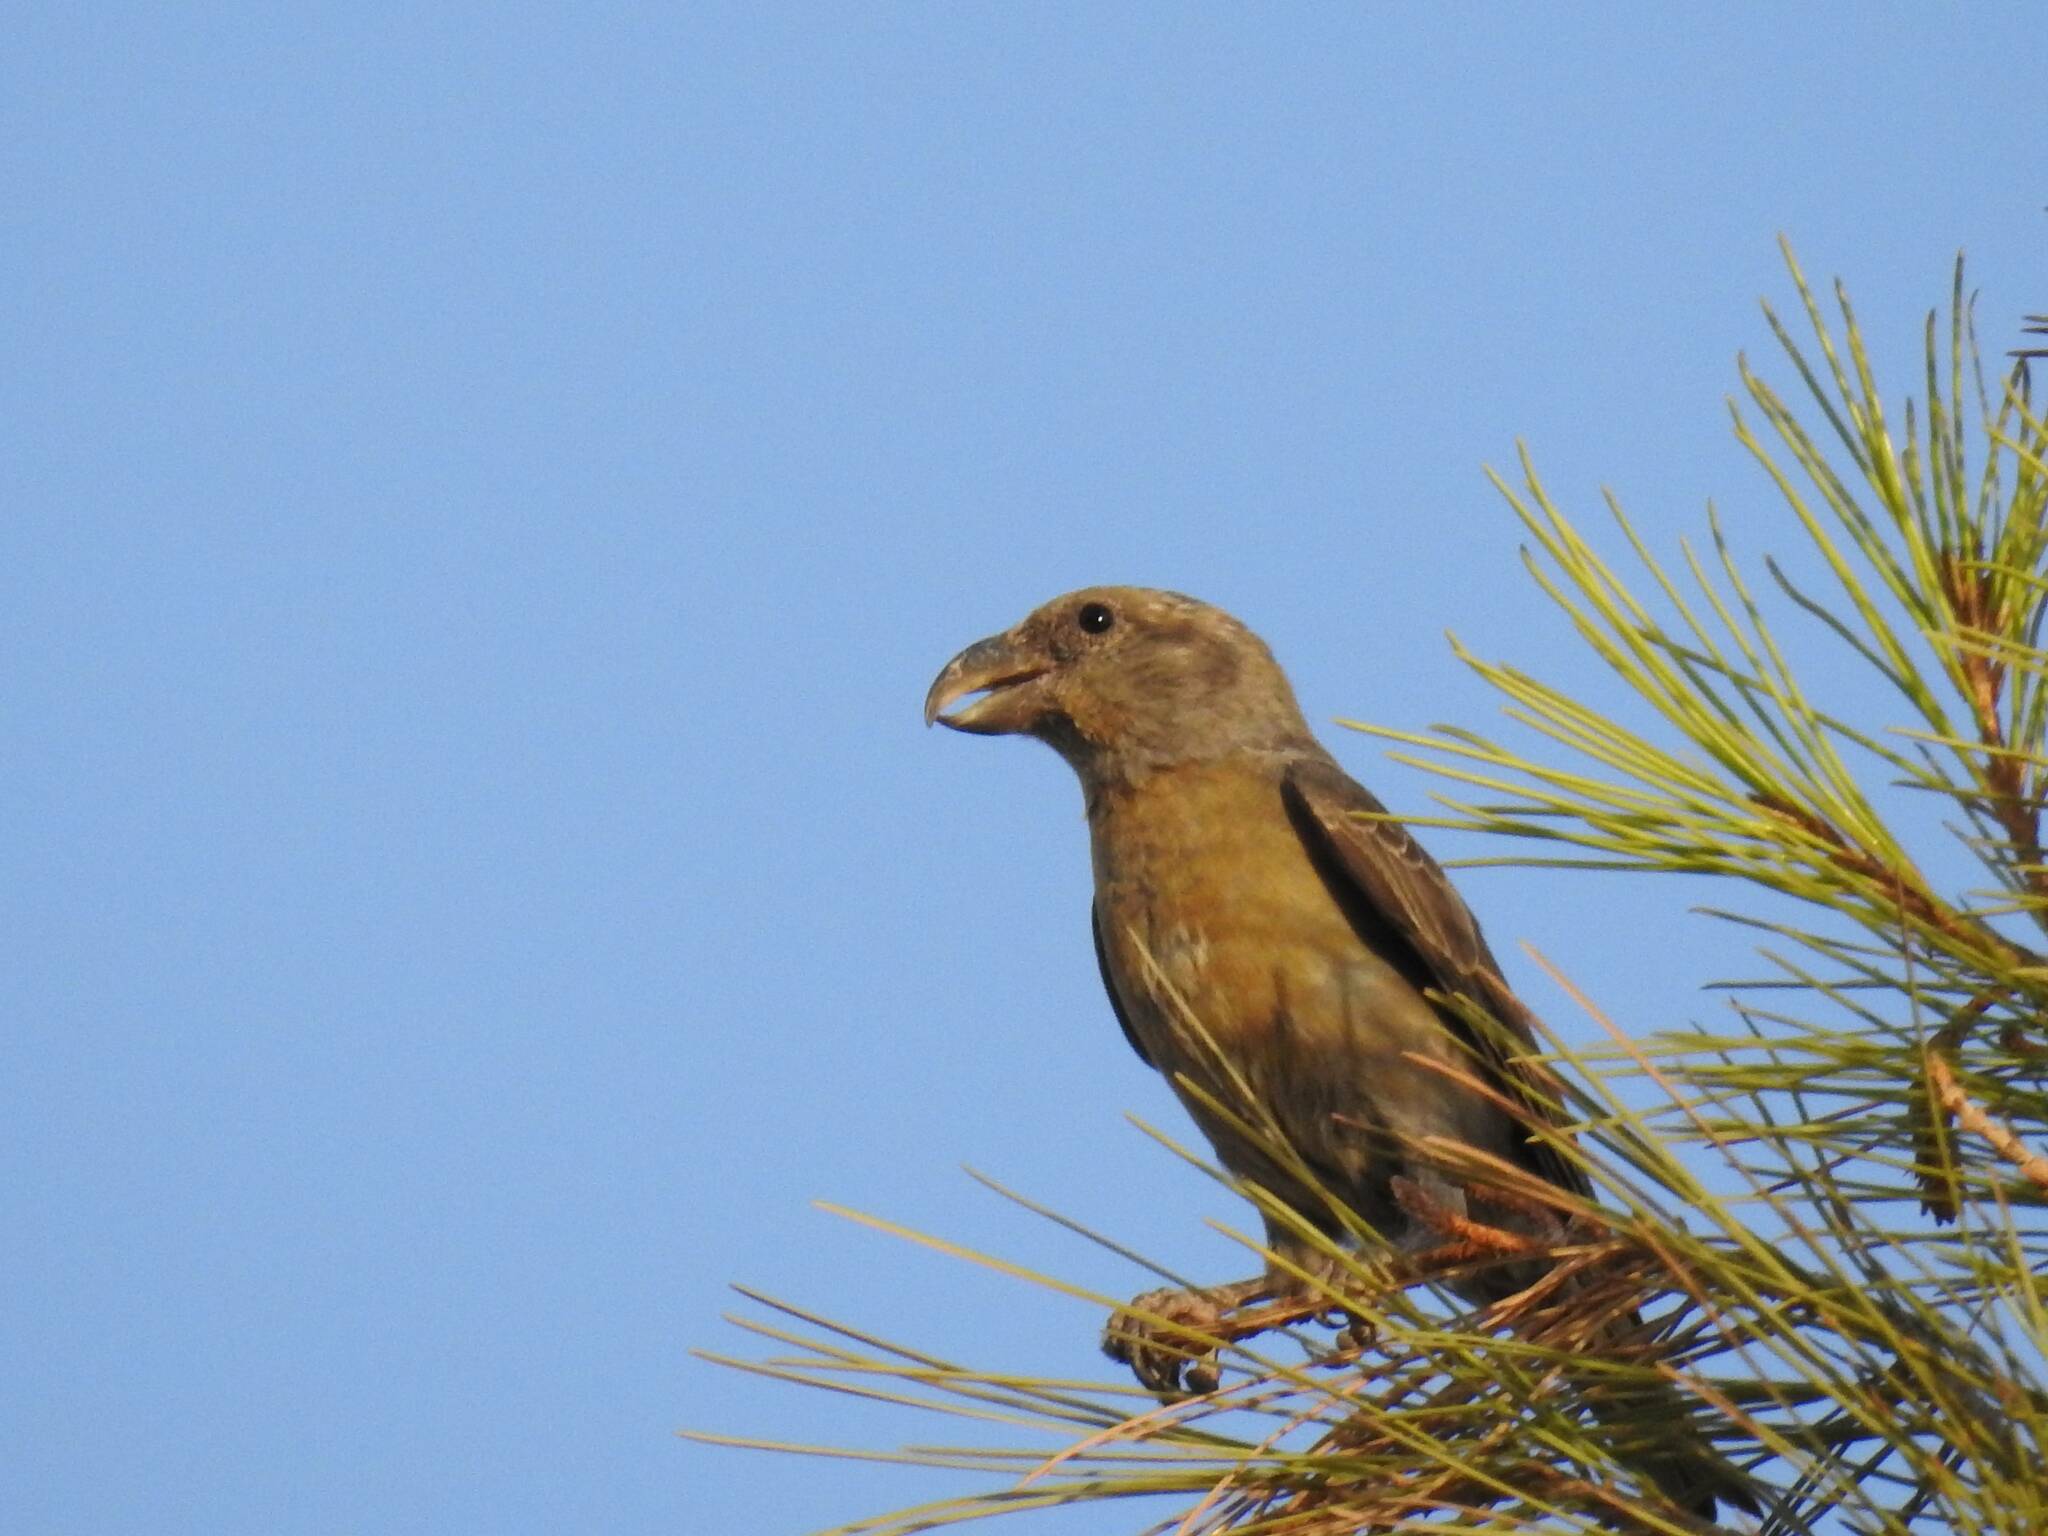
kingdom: Animalia
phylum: Chordata
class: Aves
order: Passeriformes
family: Fringillidae
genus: Loxia
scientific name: Loxia curvirostra
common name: Red crossbill
